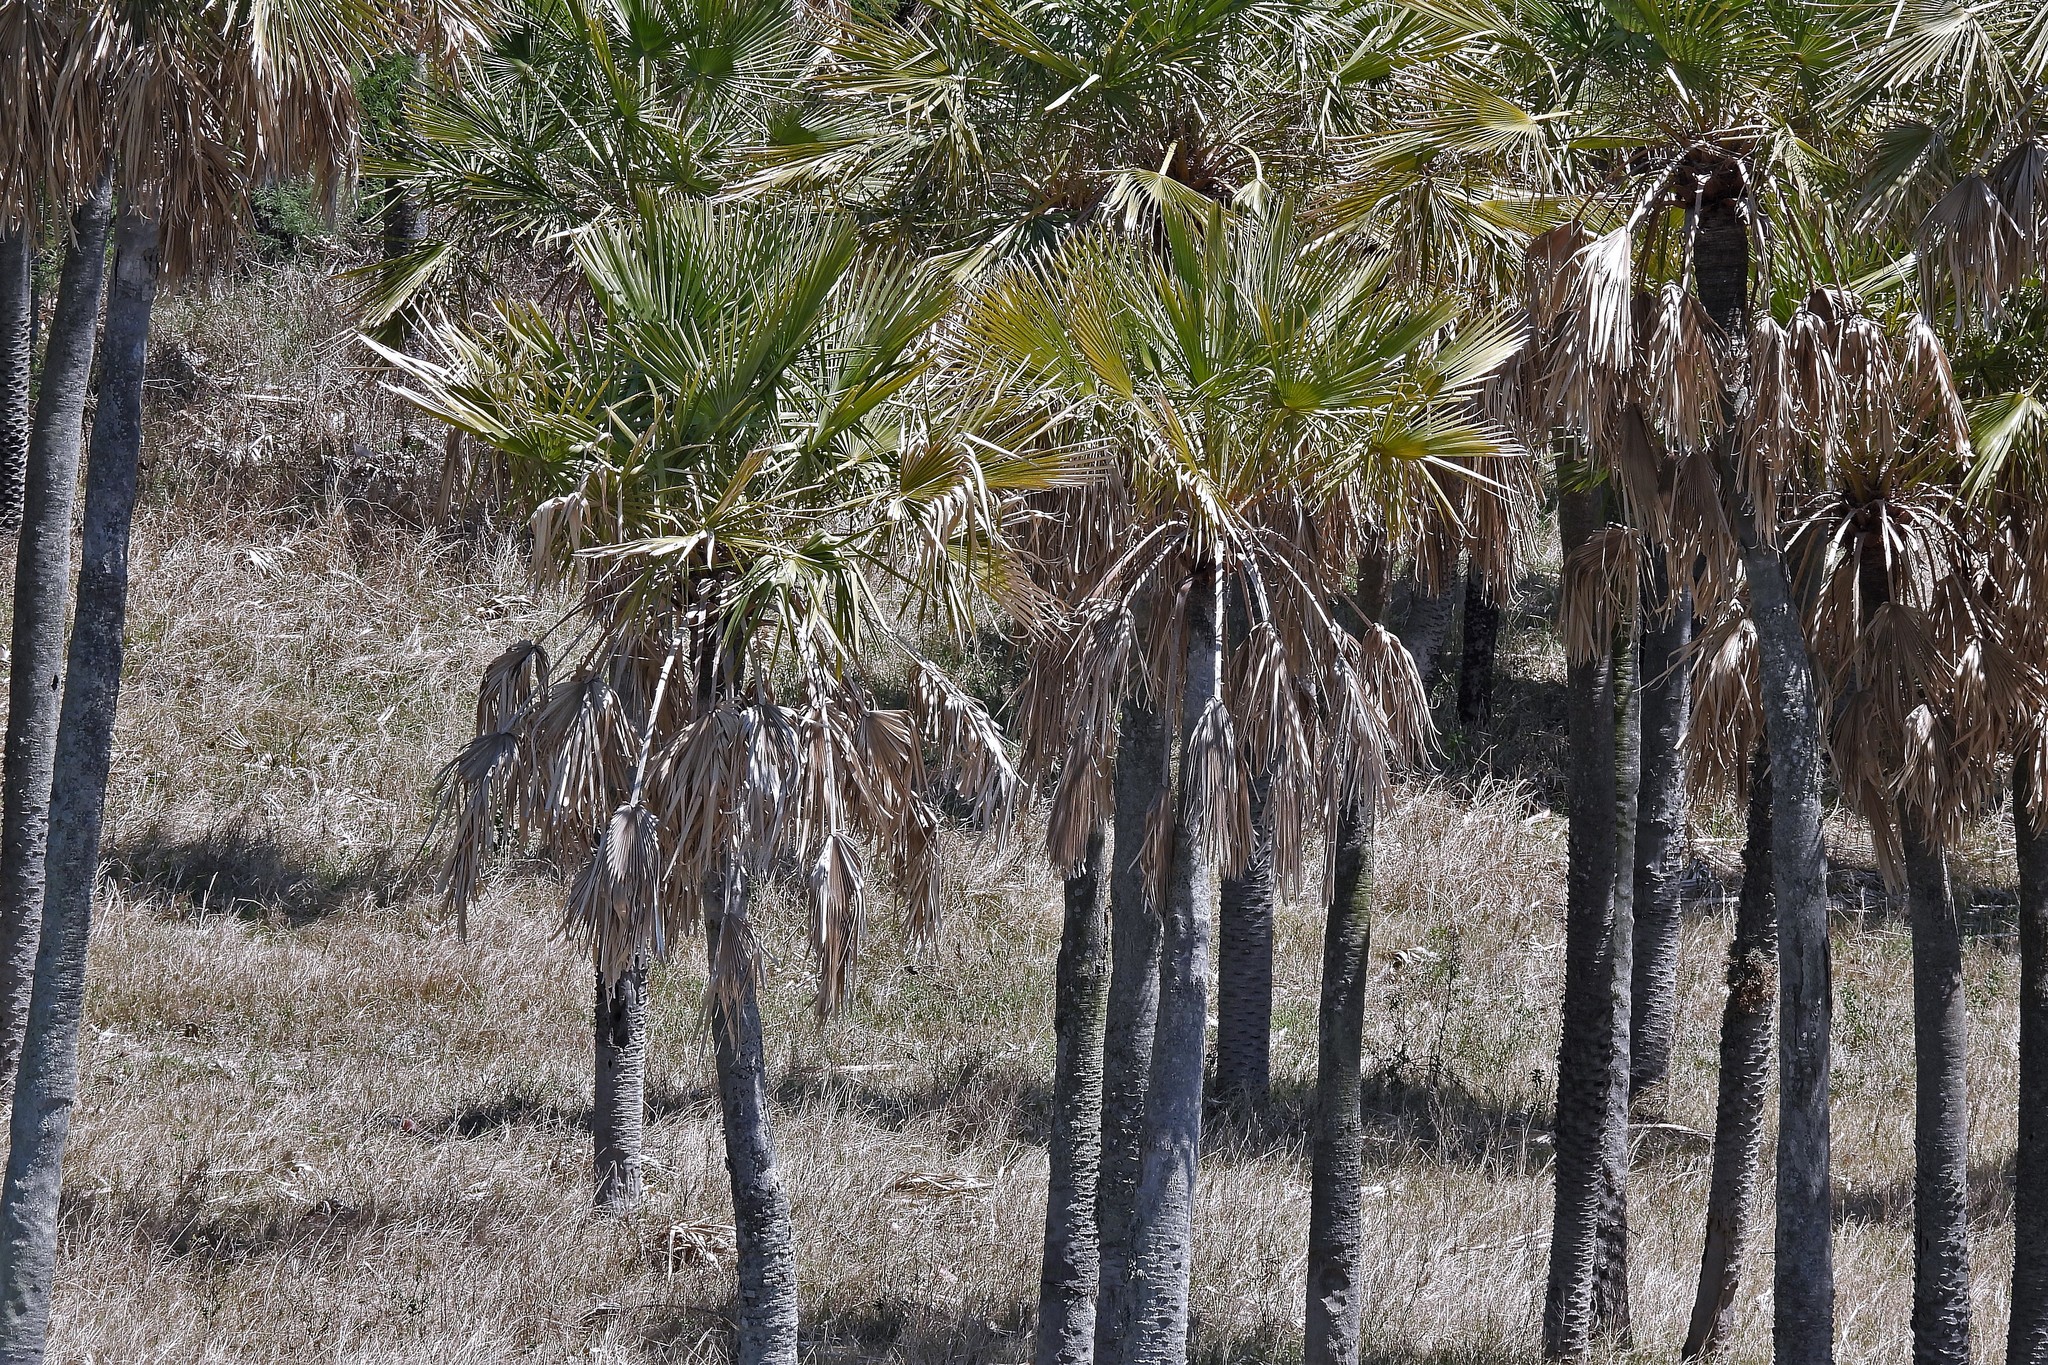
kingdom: Plantae
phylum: Tracheophyta
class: Liliopsida
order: Arecales
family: Arecaceae
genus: Copernicia
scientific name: Copernicia alba
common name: Caranday palm
